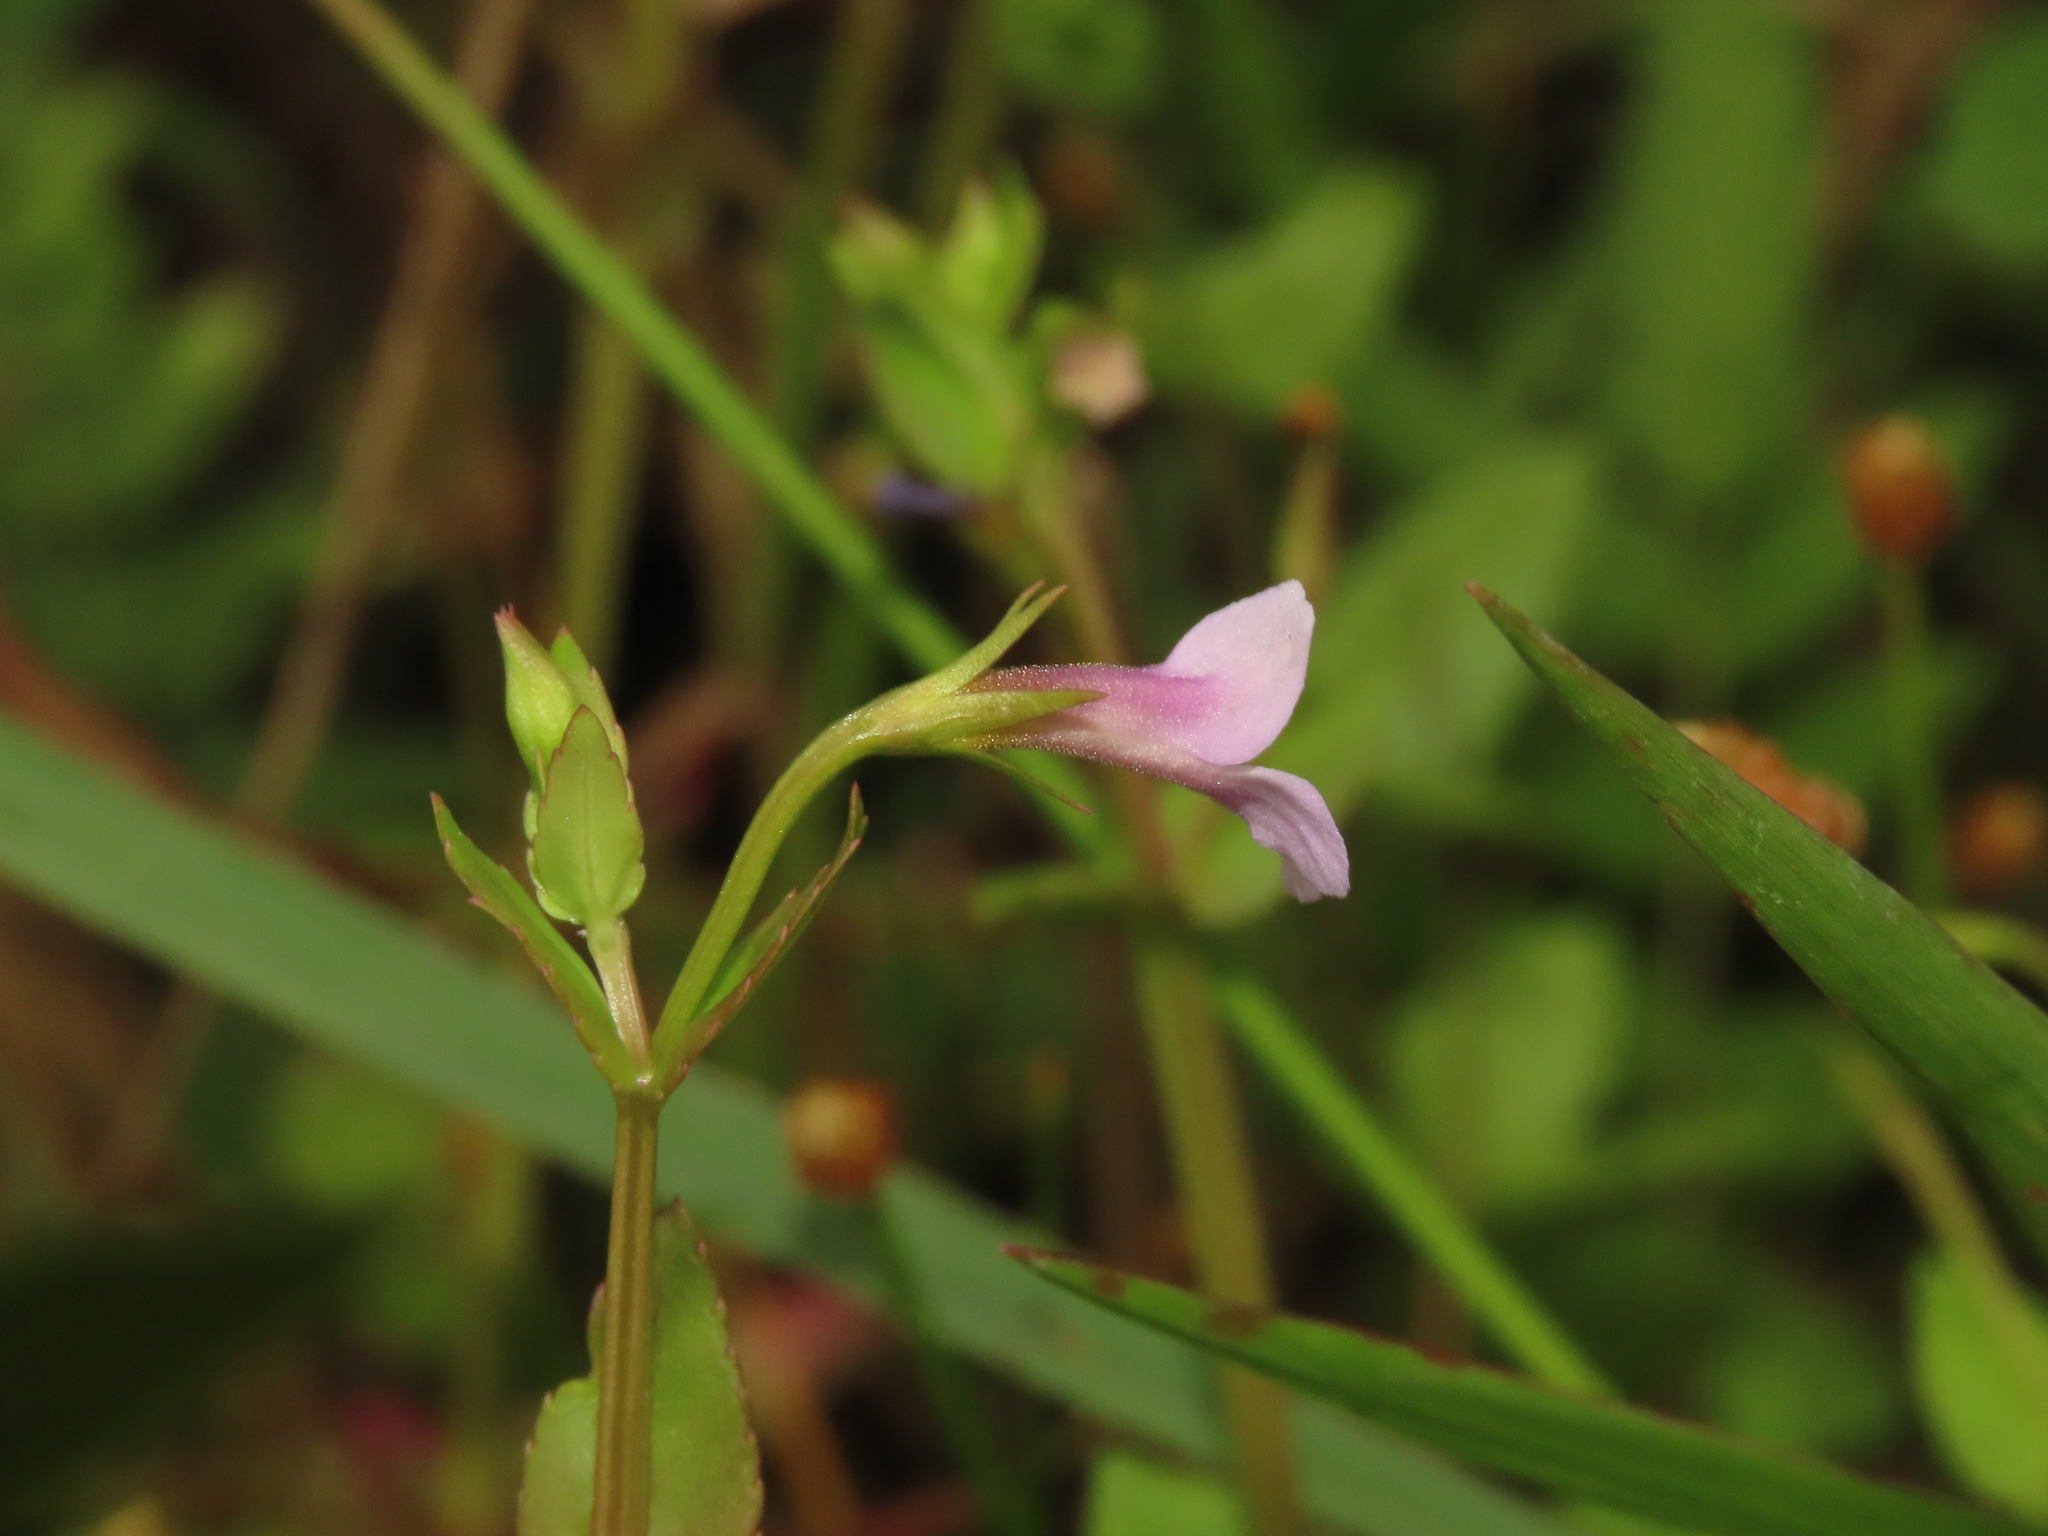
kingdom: Plantae
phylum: Tracheophyta
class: Magnoliopsida
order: Lamiales
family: Linderniaceae
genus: Torenia
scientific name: Torenia anagallis
